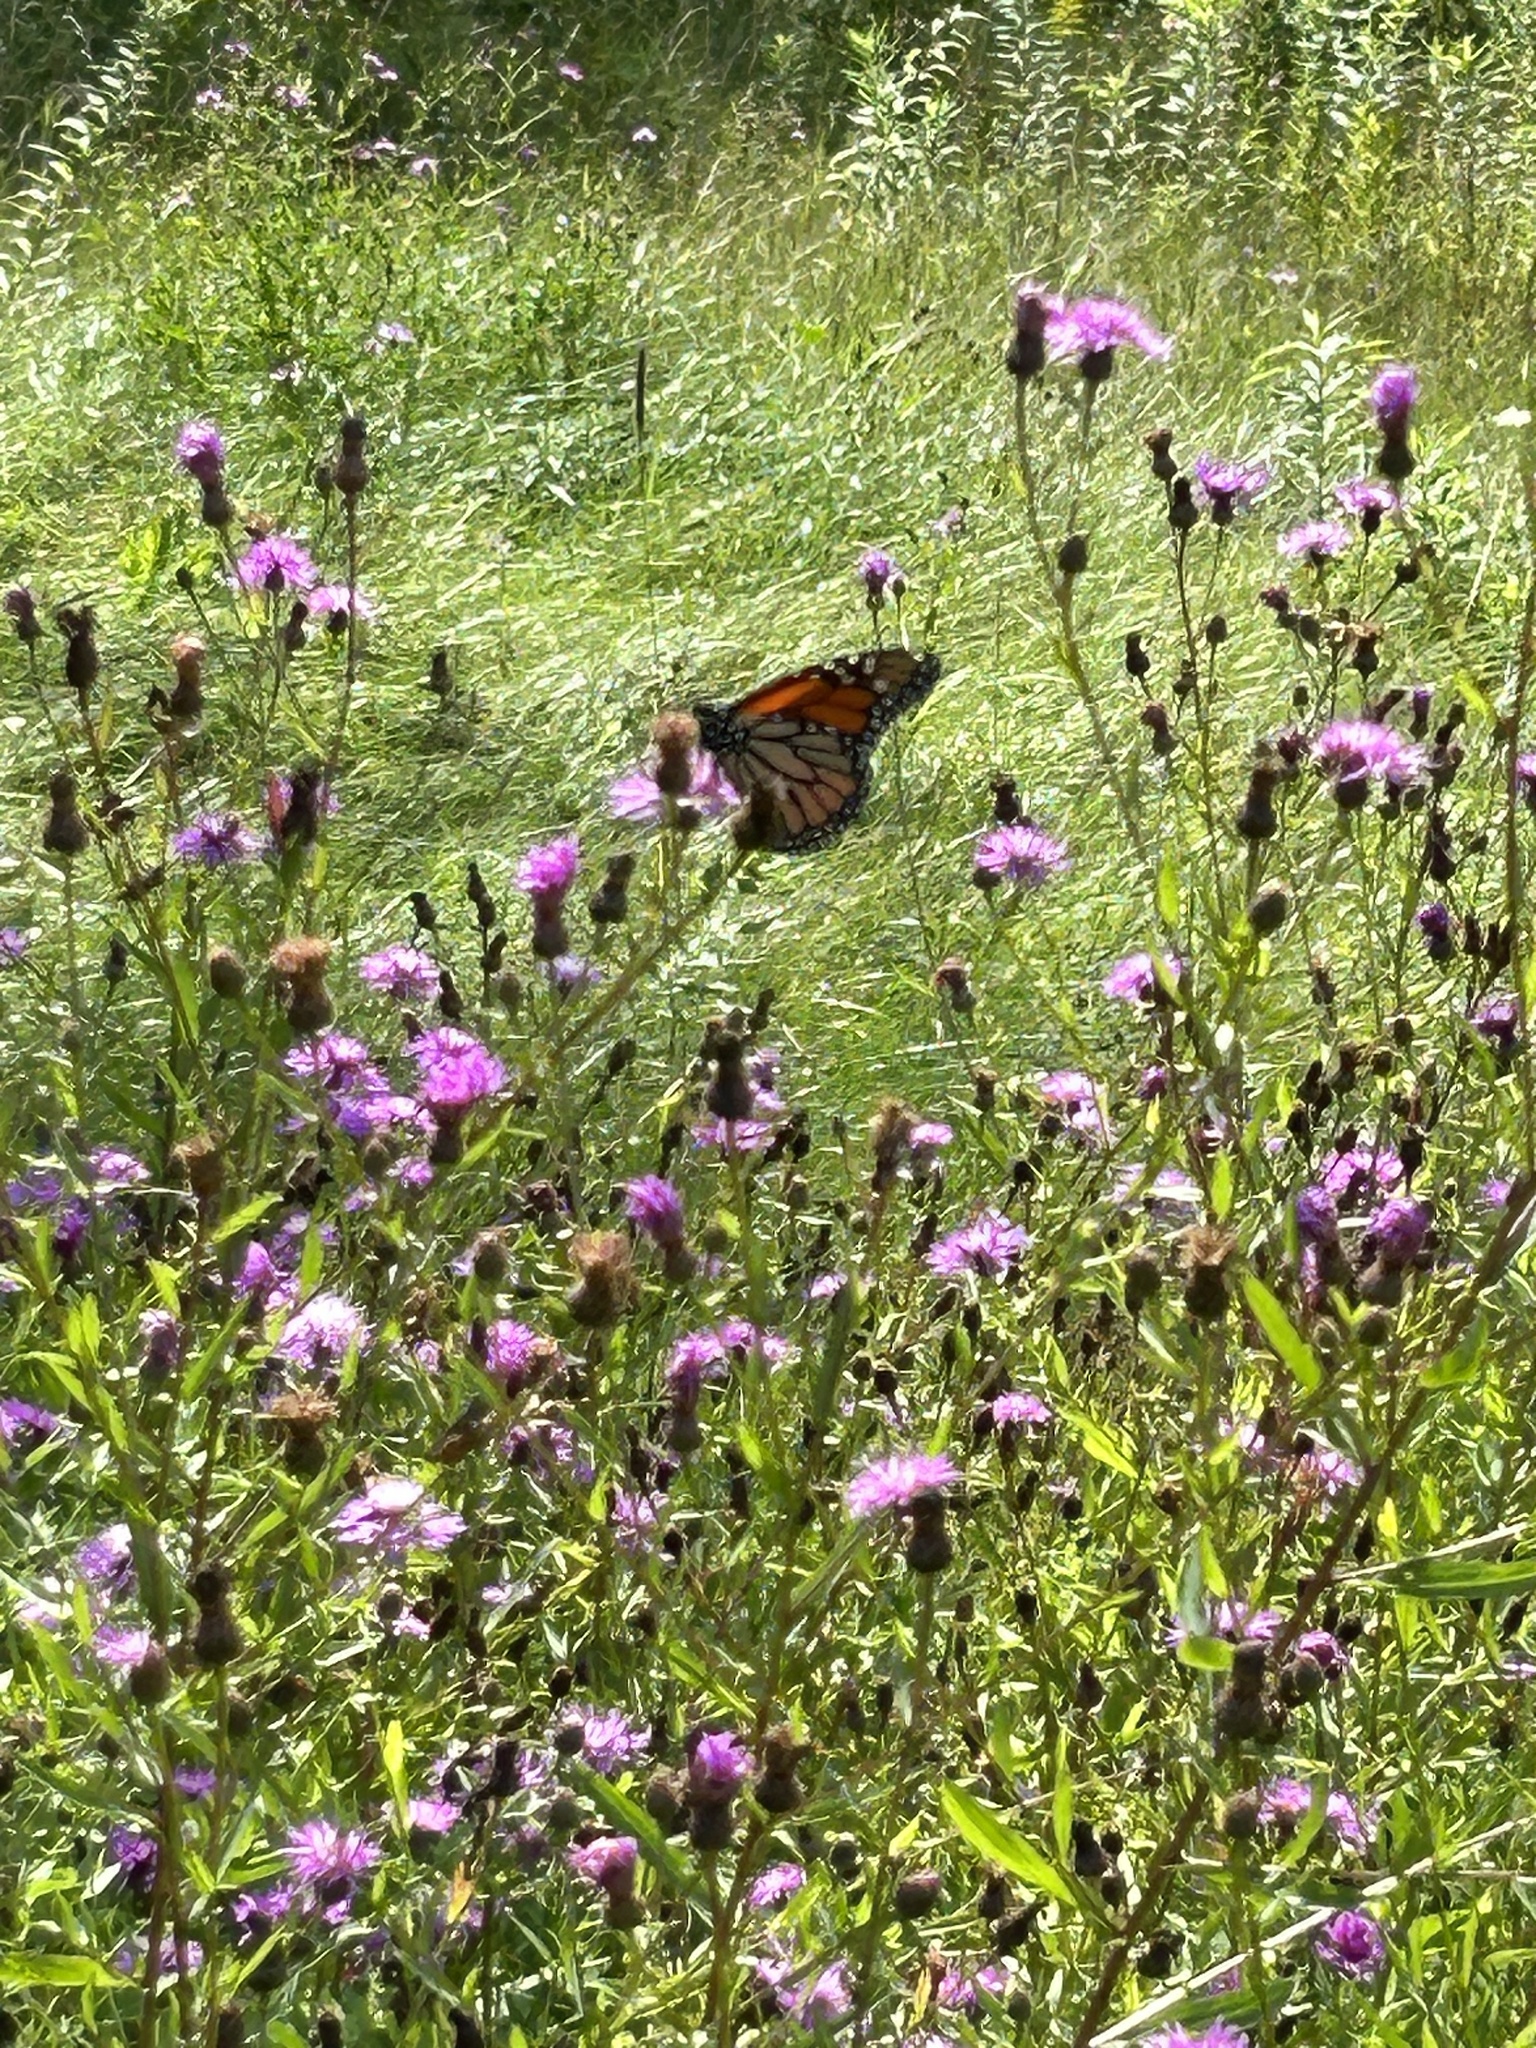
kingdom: Animalia
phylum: Arthropoda
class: Insecta
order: Lepidoptera
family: Nymphalidae
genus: Danaus
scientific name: Danaus plexippus
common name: Monarch
